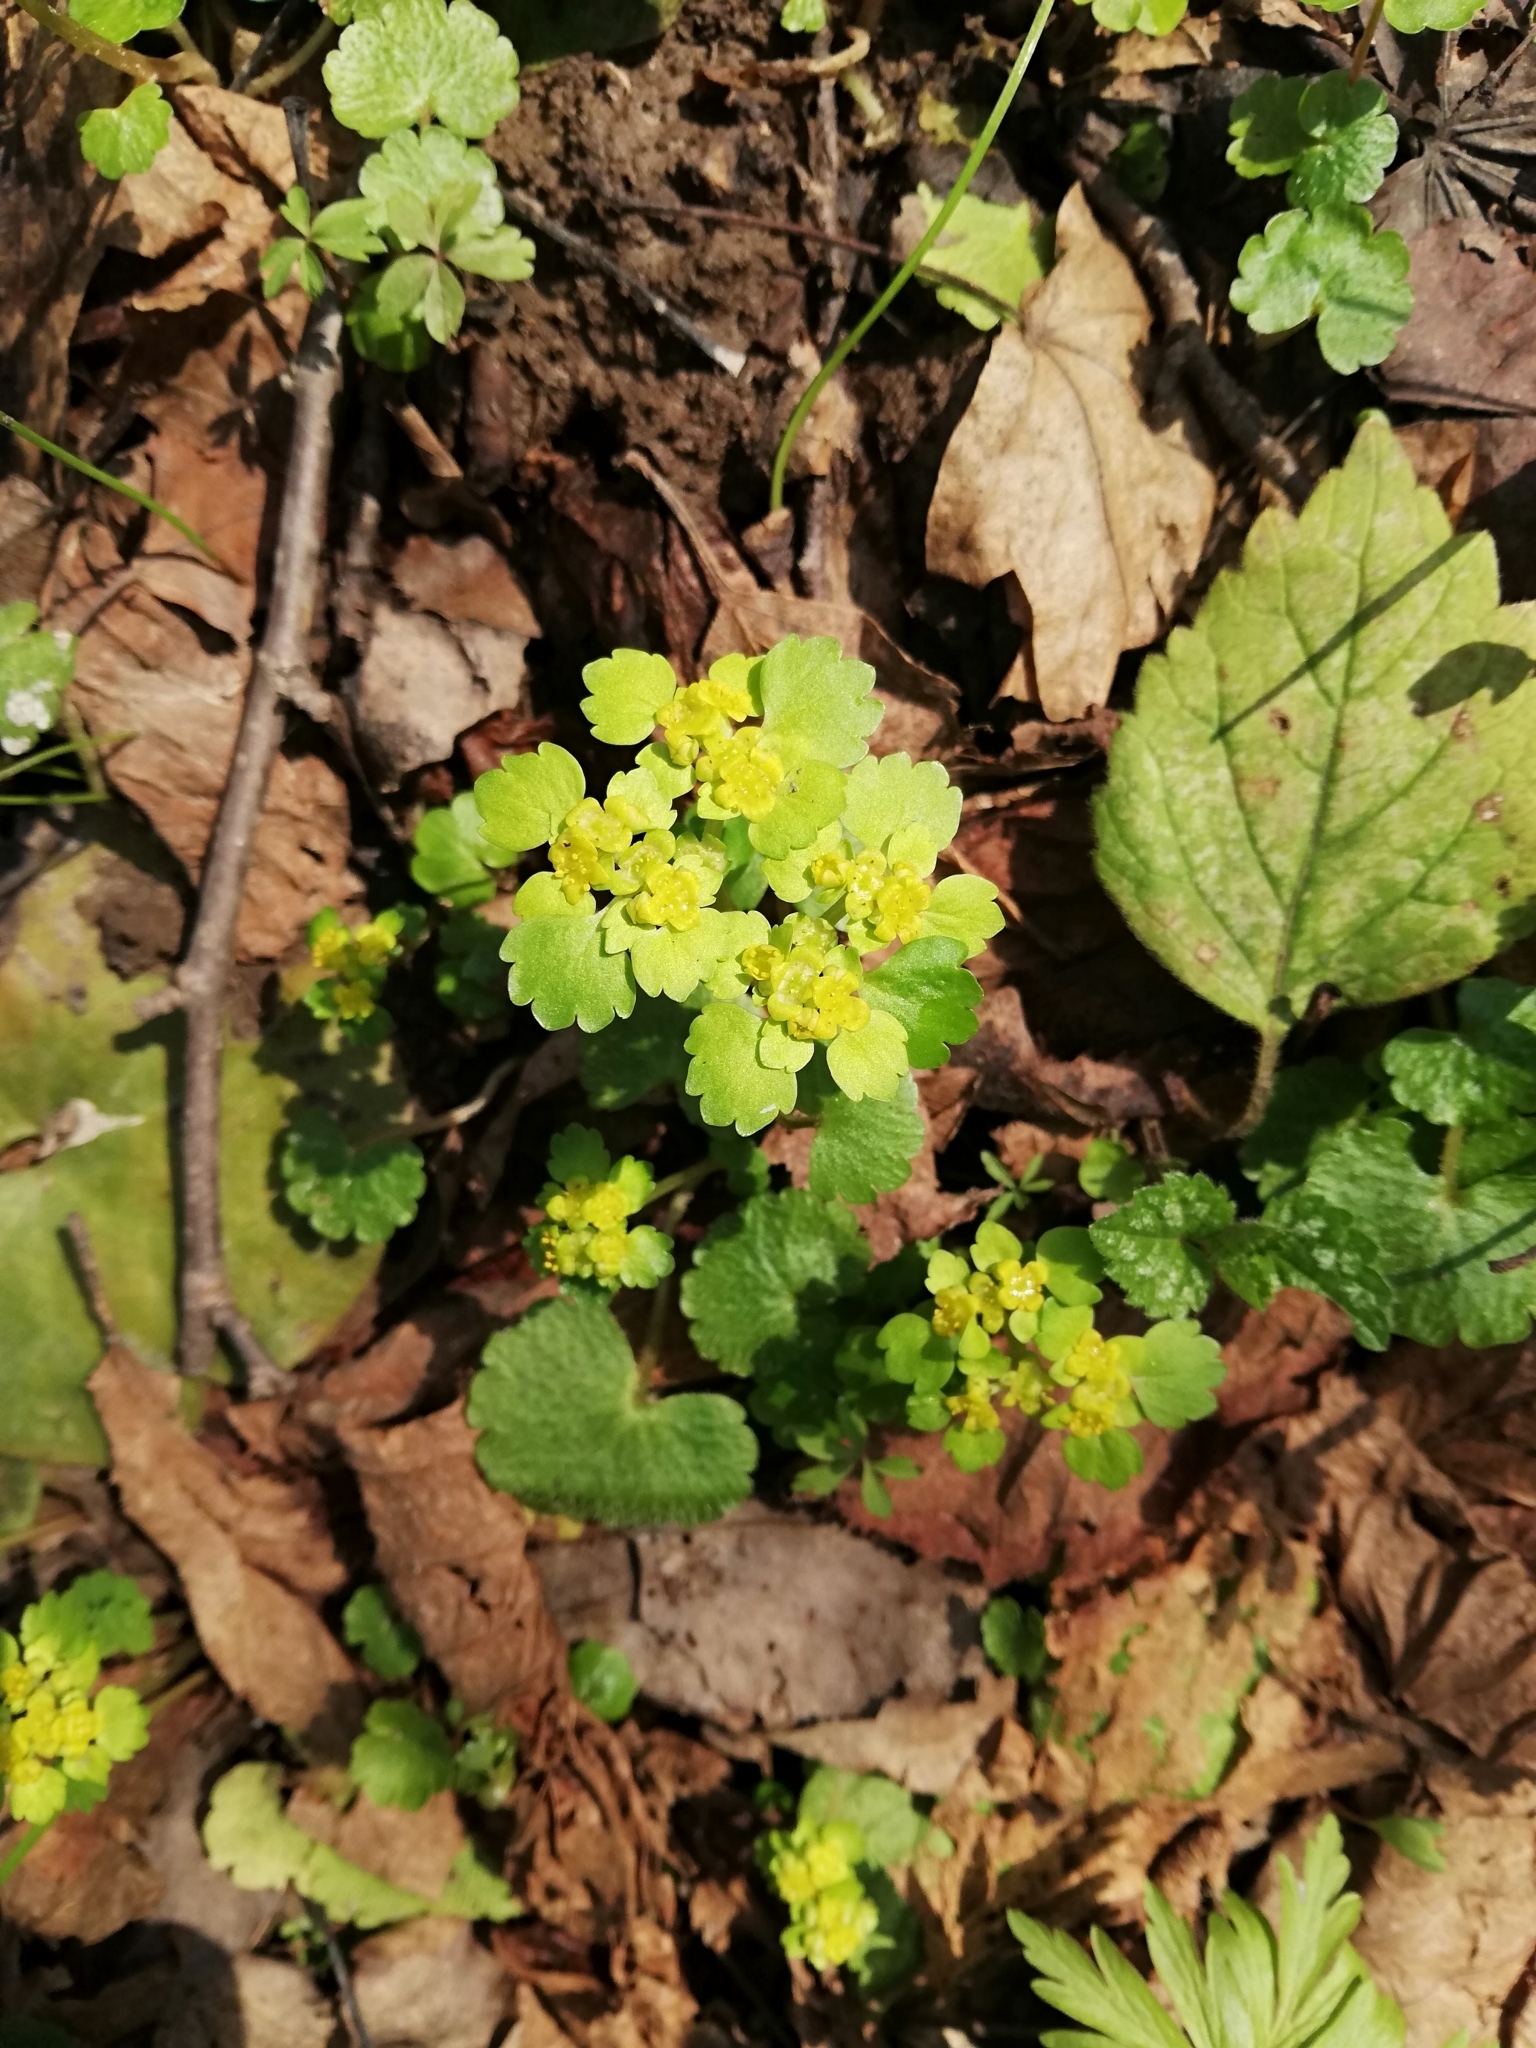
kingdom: Plantae
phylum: Tracheophyta
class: Magnoliopsida
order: Saxifragales
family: Saxifragaceae
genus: Chrysosplenium
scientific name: Chrysosplenium alternifolium
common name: Alternate-leaved golden-saxifrage
